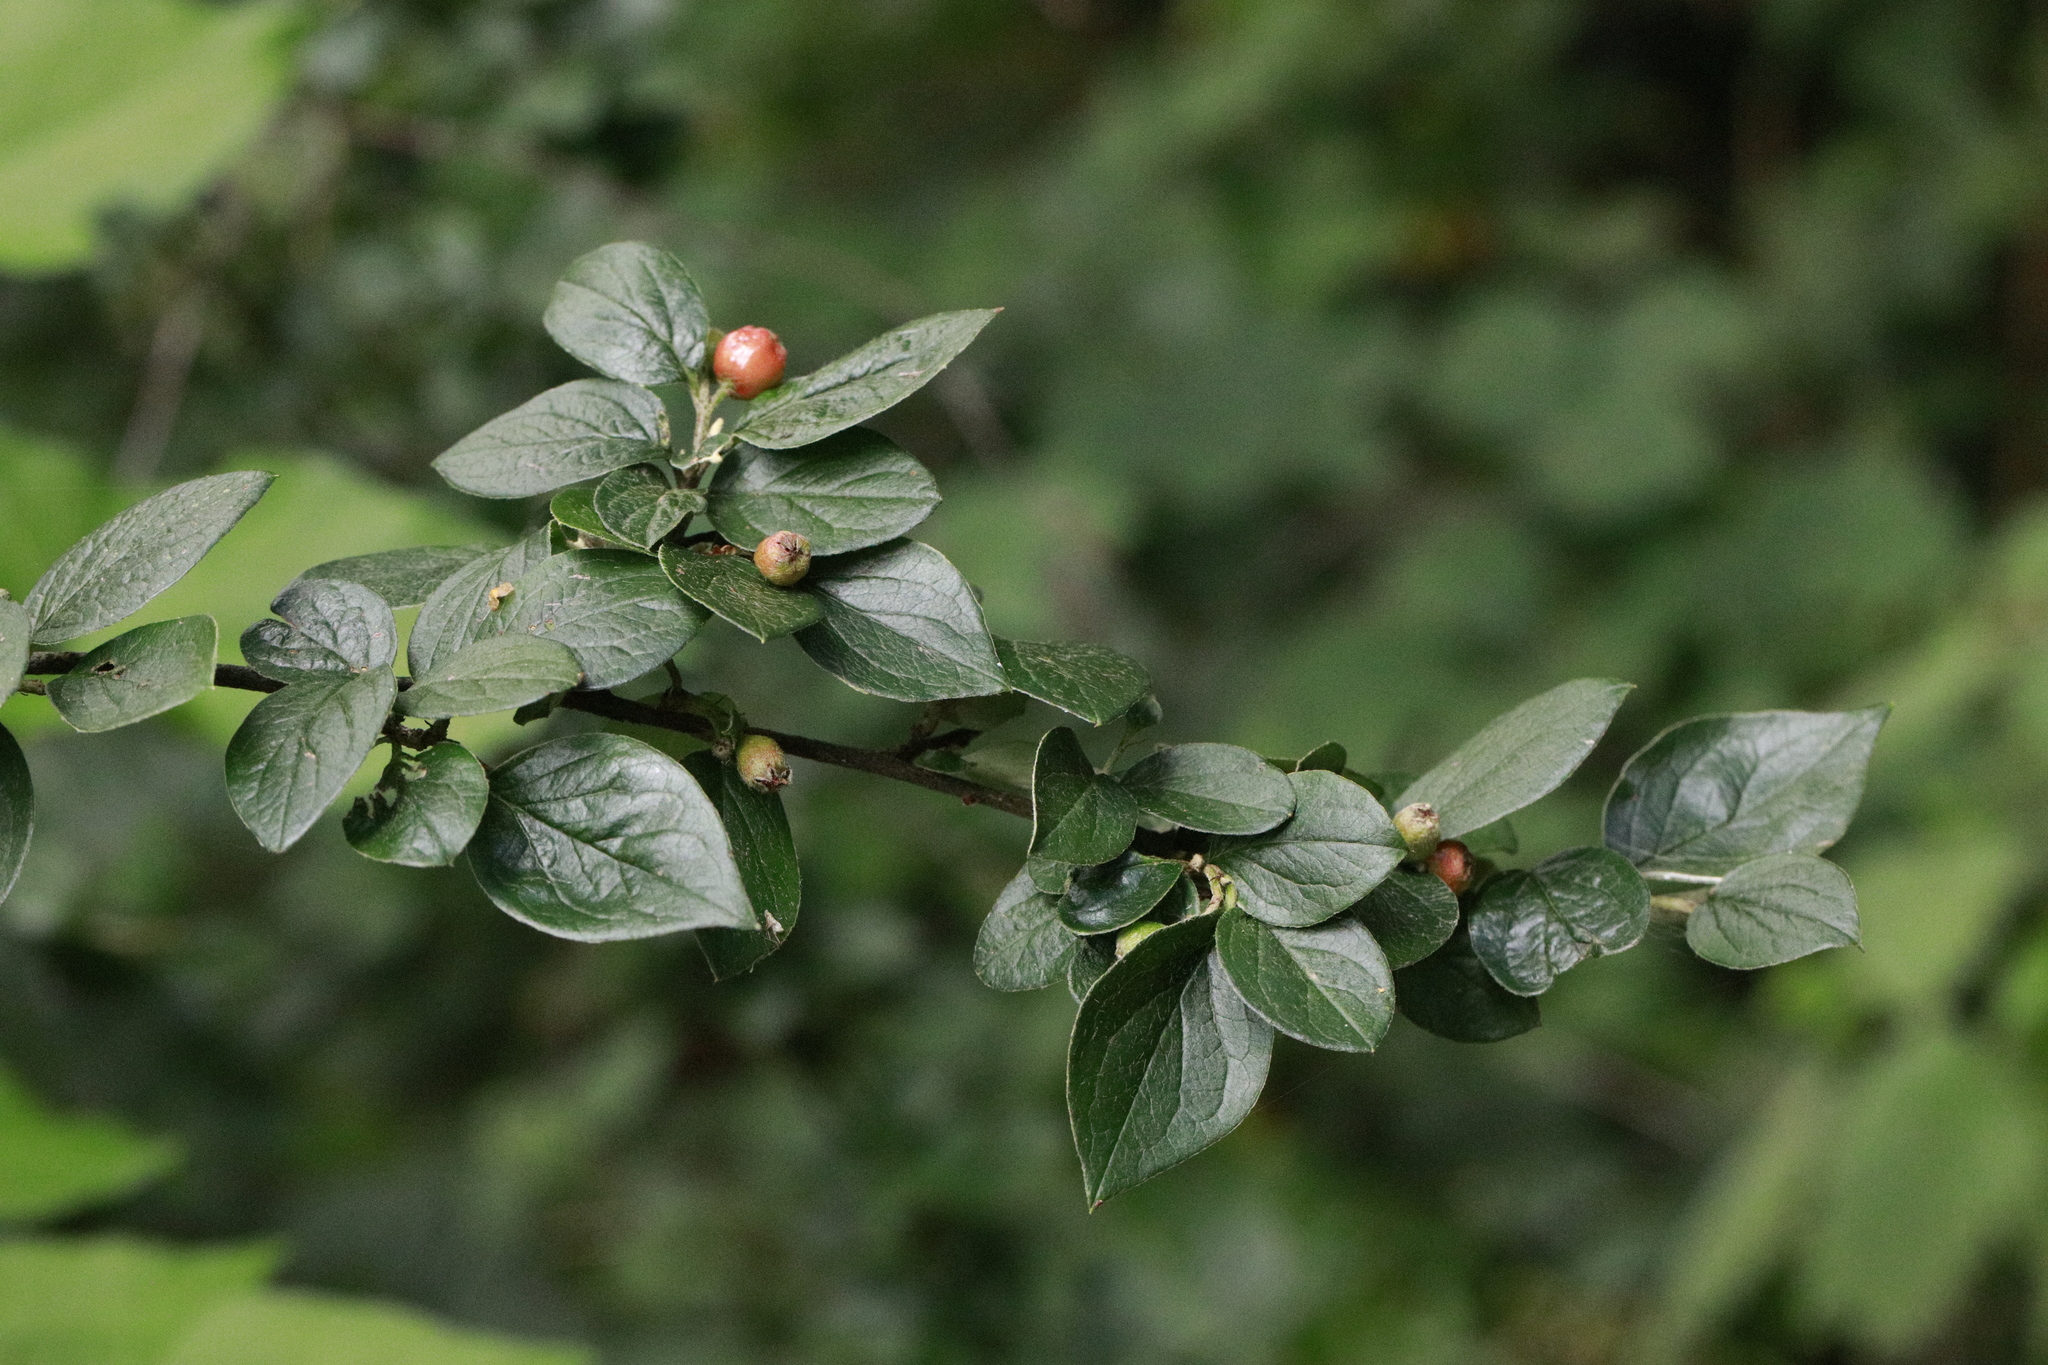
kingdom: Plantae
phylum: Tracheophyta
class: Magnoliopsida
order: Rosales
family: Rosaceae
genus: Cotoneaster
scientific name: Cotoneaster franchetii
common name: Franchet's cotoneaster
